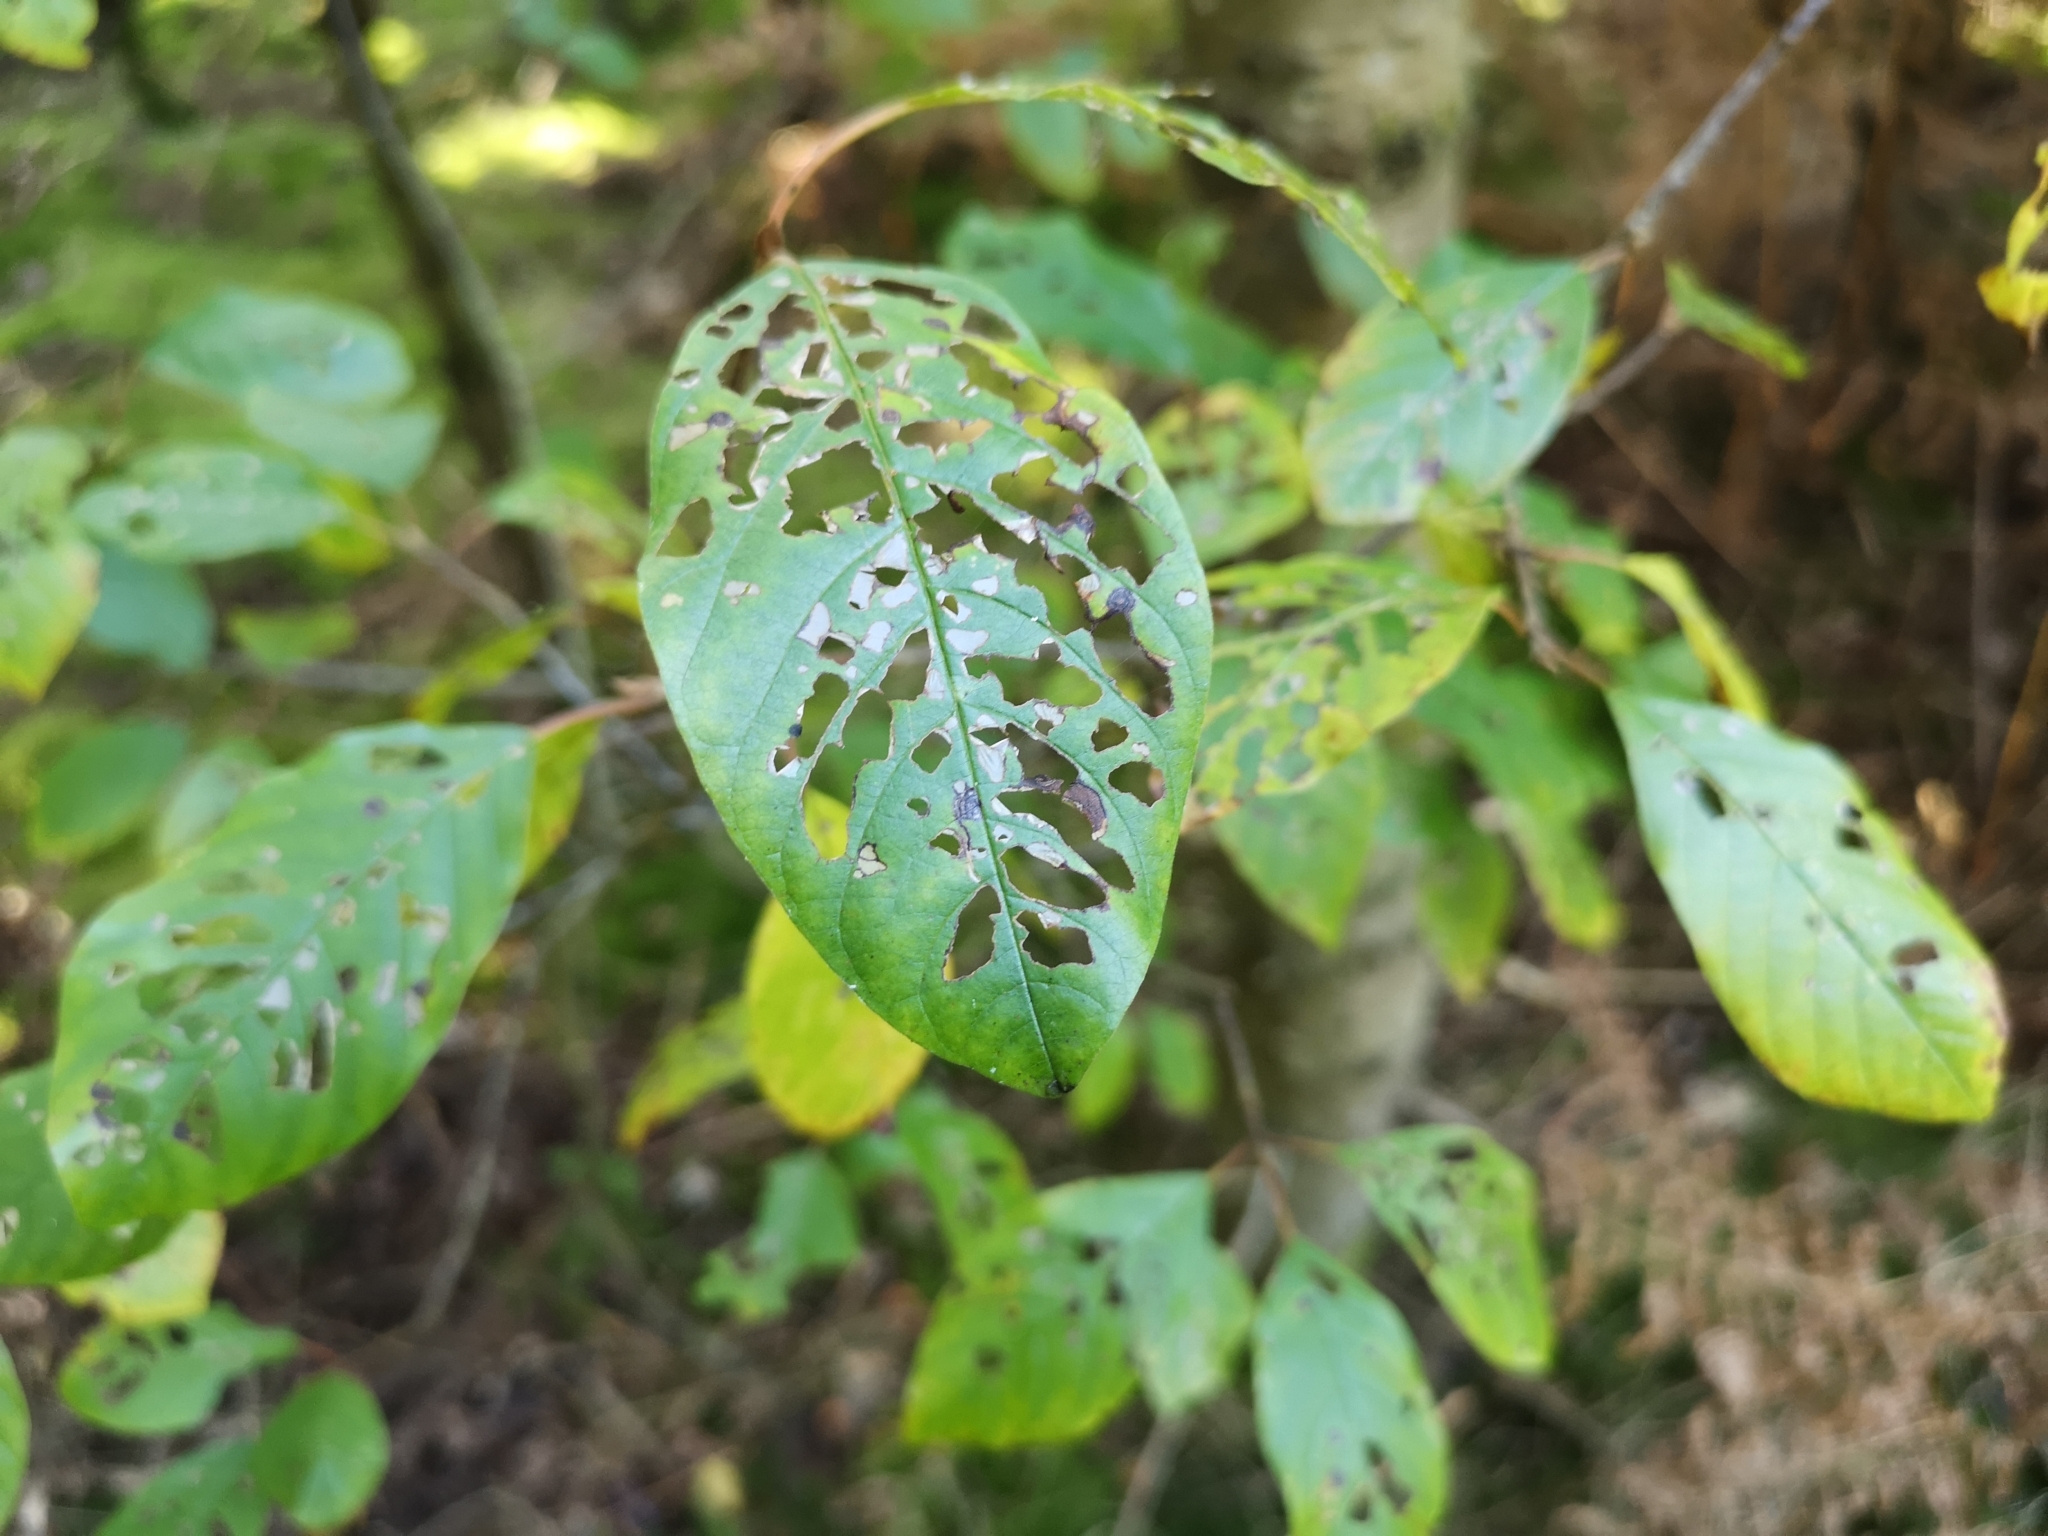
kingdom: Plantae
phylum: Tracheophyta
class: Magnoliopsida
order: Rosales
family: Rhamnaceae
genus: Frangula
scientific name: Frangula alnus
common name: Alder buckthorn
